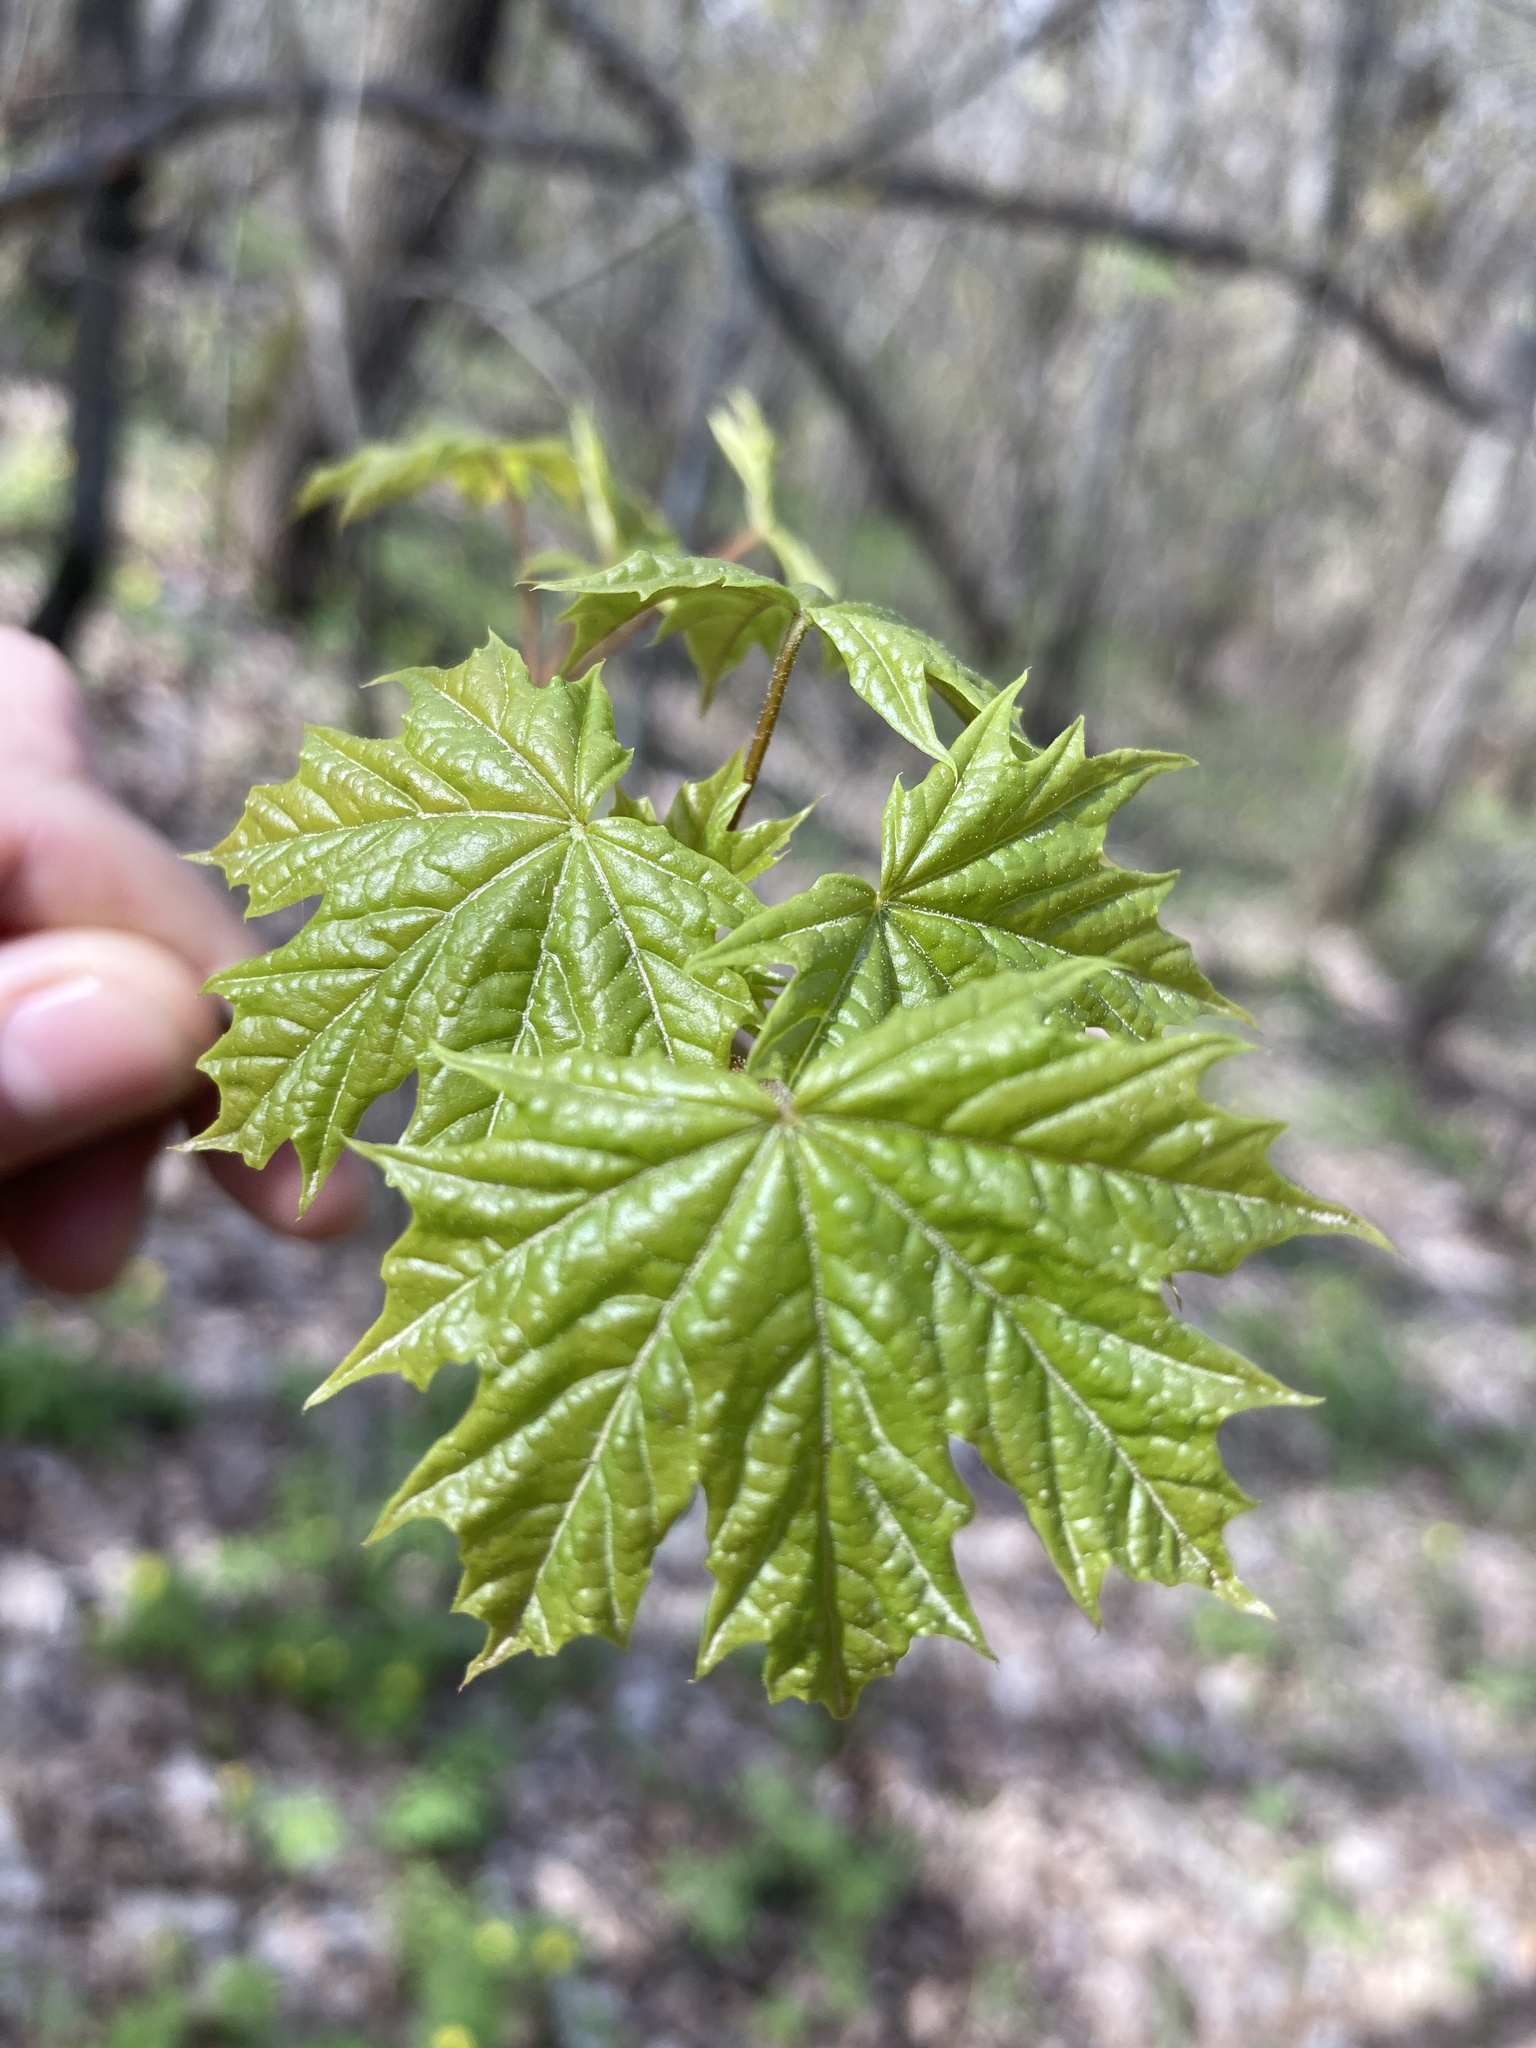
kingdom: Plantae
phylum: Tracheophyta
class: Magnoliopsida
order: Sapindales
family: Sapindaceae
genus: Acer
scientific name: Acer platanoides
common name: Norway maple
